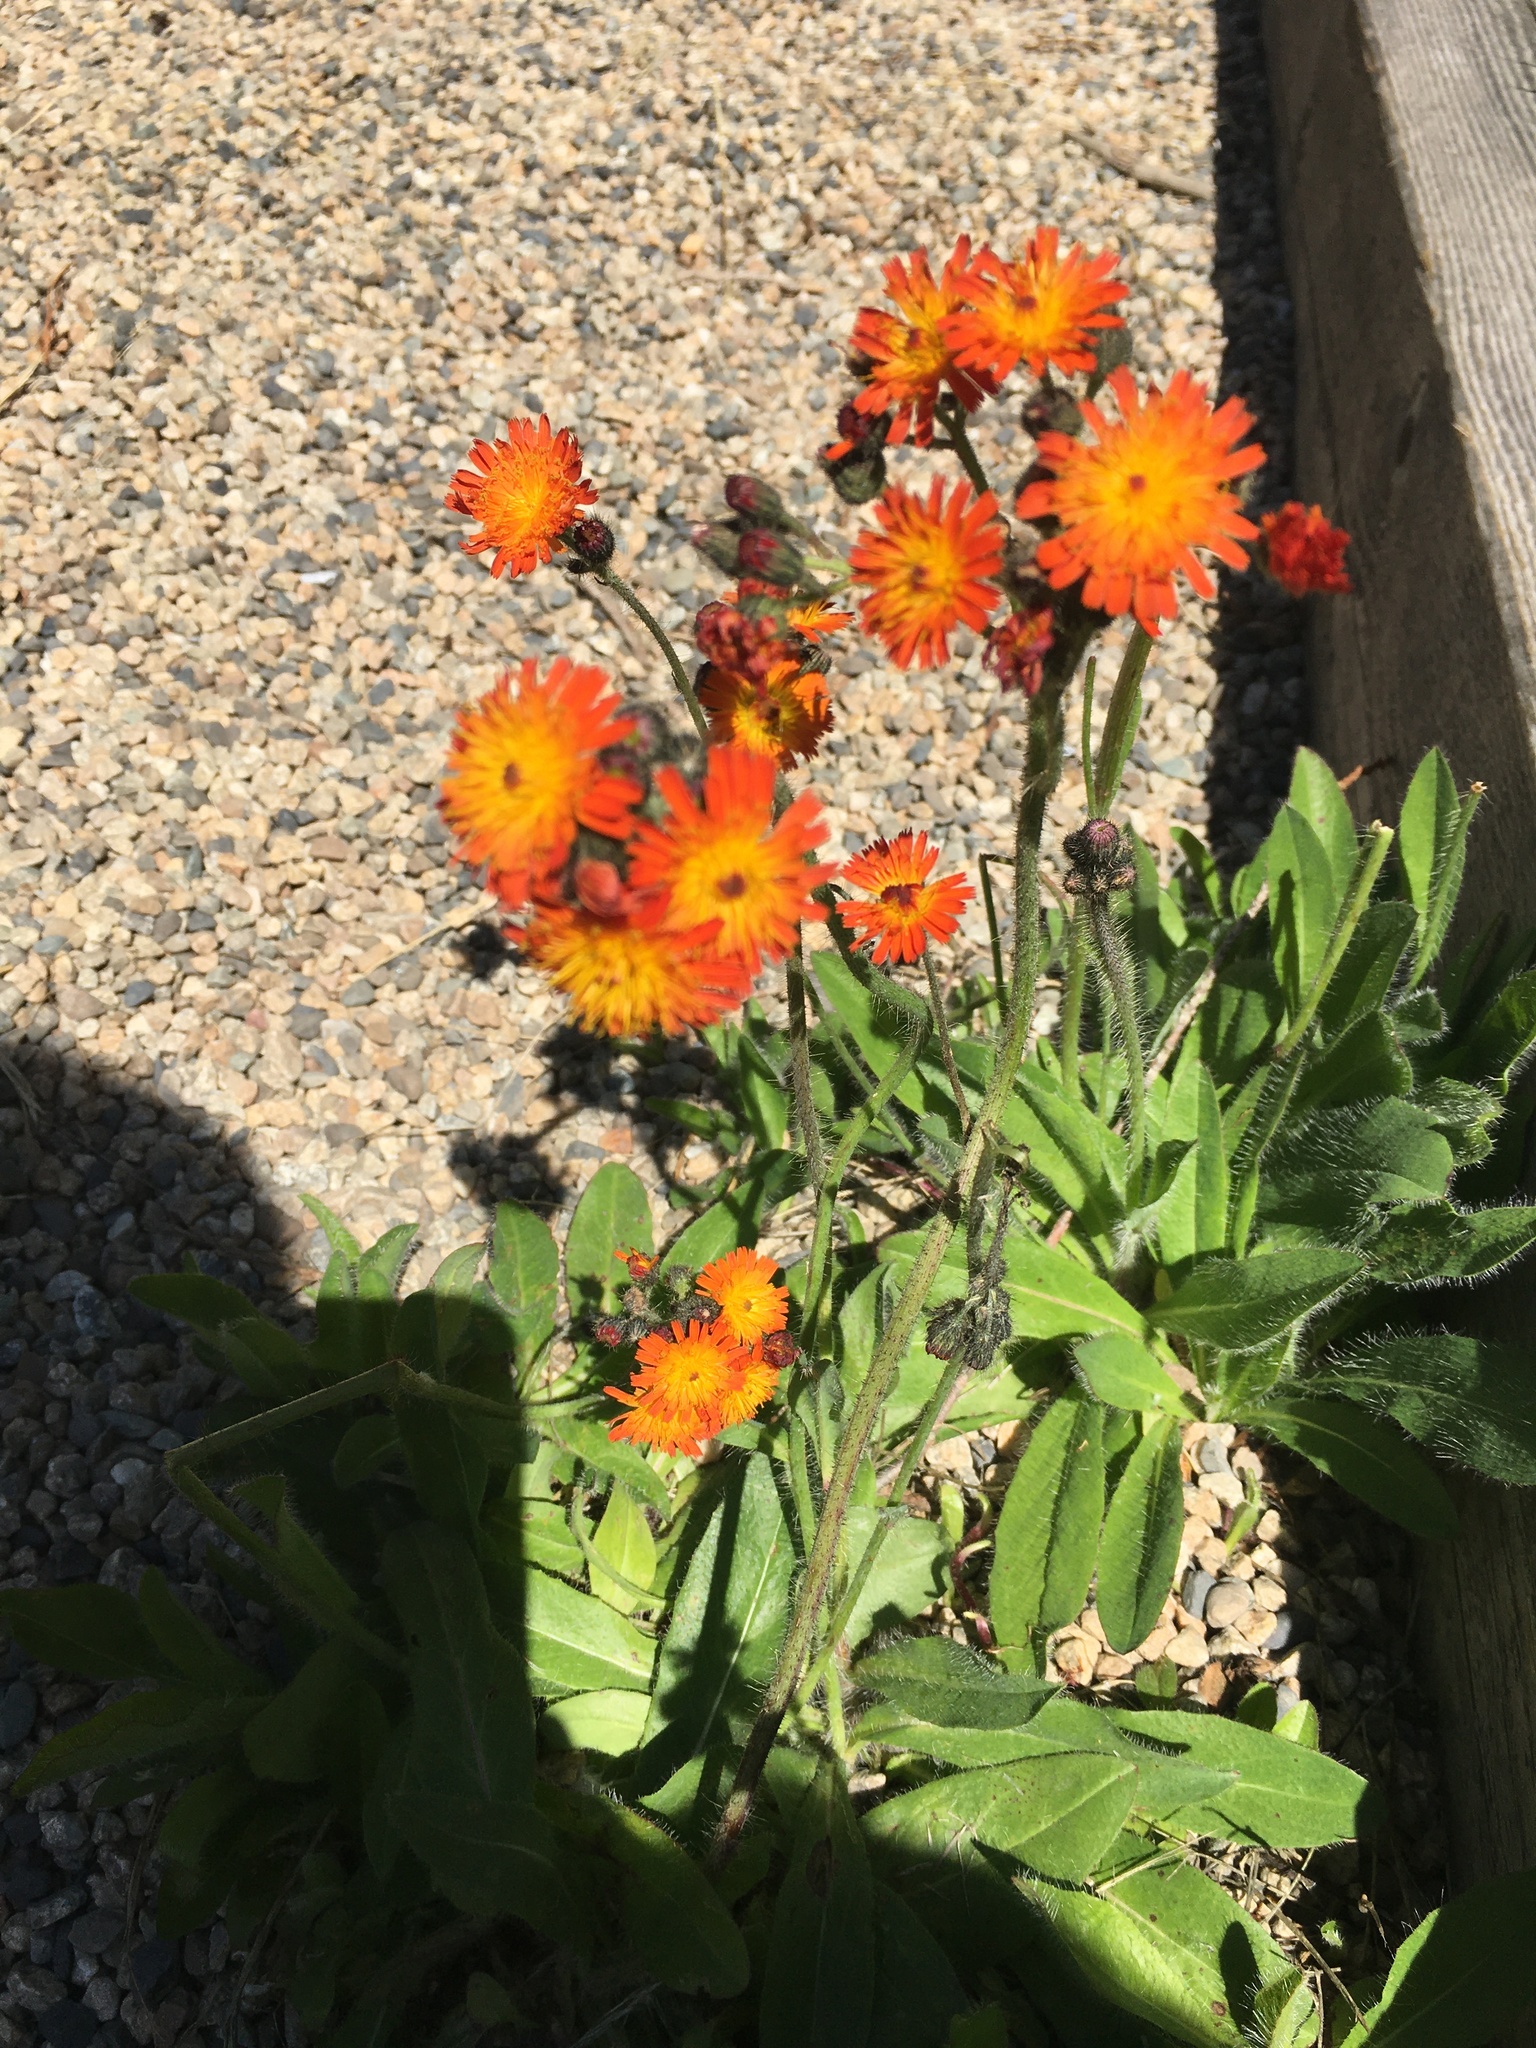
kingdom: Plantae
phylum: Tracheophyta
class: Magnoliopsida
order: Asterales
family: Asteraceae
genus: Pilosella
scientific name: Pilosella aurantiaca
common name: Fox-and-cubs
